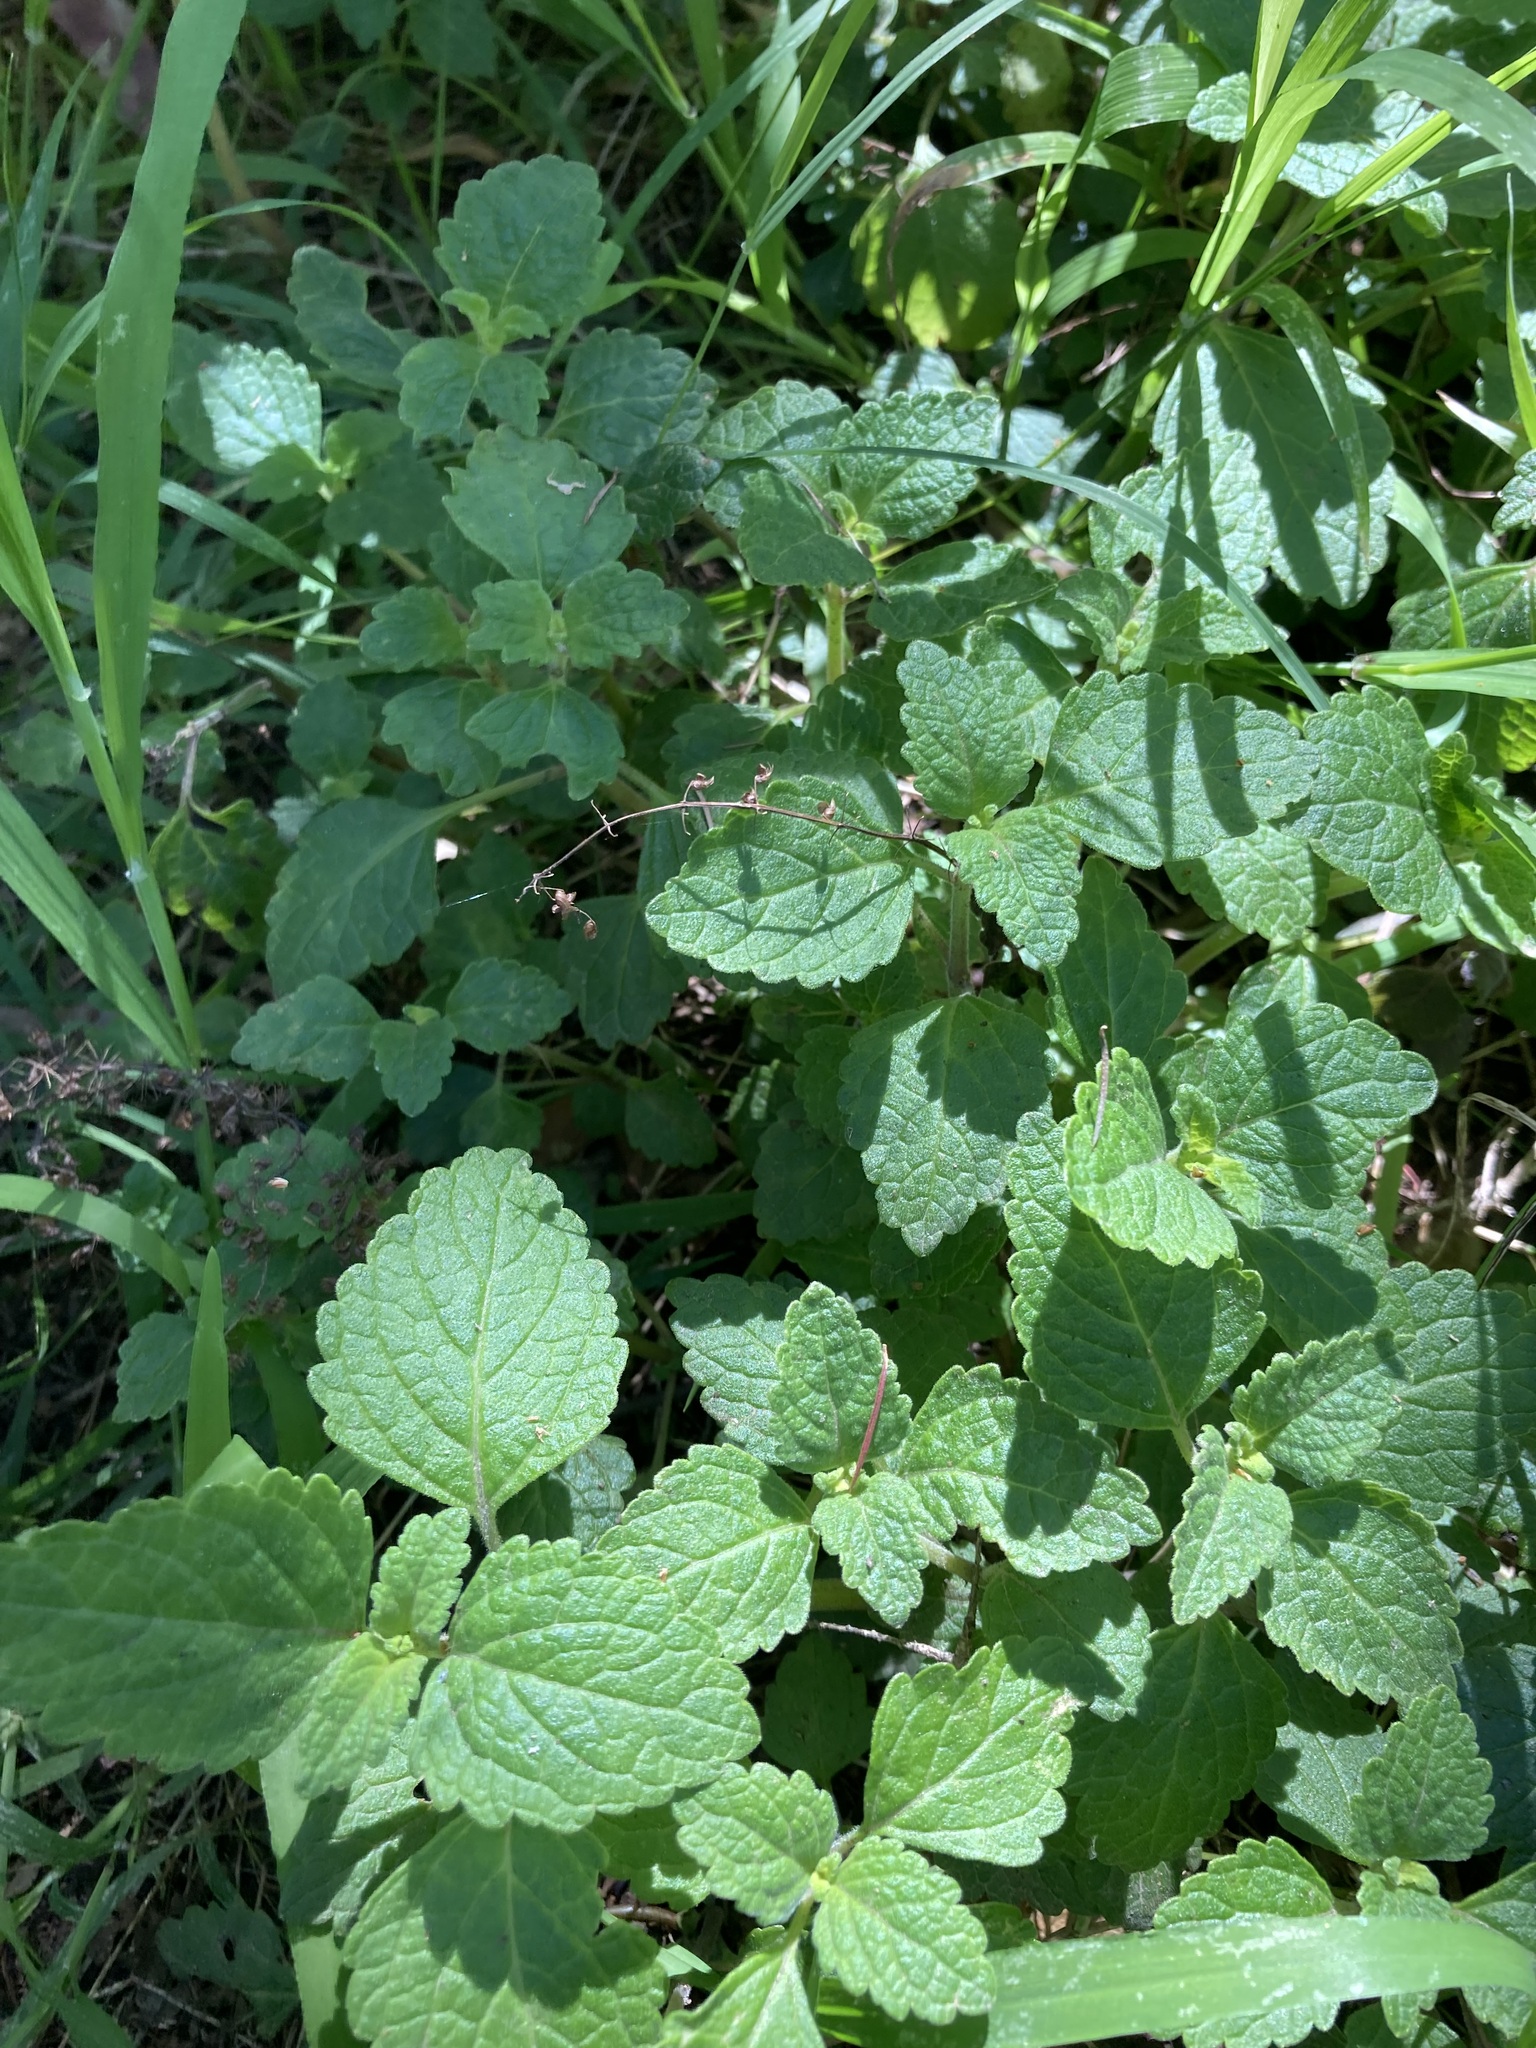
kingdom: Plantae
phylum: Tracheophyta
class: Magnoliopsida
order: Lamiales
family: Lamiaceae
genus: Coleus
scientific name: Coleus australis
